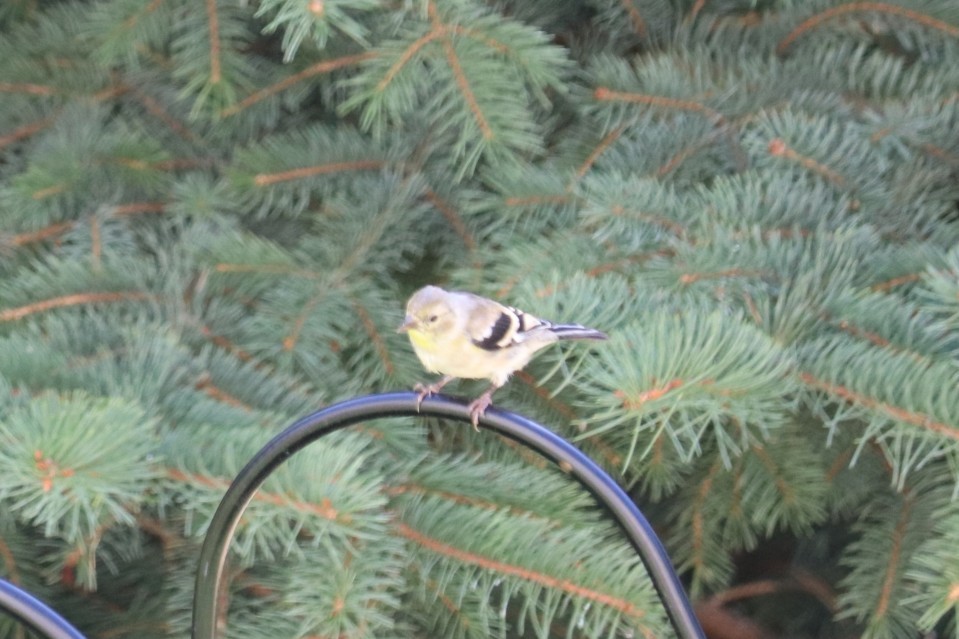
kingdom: Animalia
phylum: Chordata
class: Aves
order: Passeriformes
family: Fringillidae
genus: Spinus
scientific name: Spinus tristis
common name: American goldfinch
